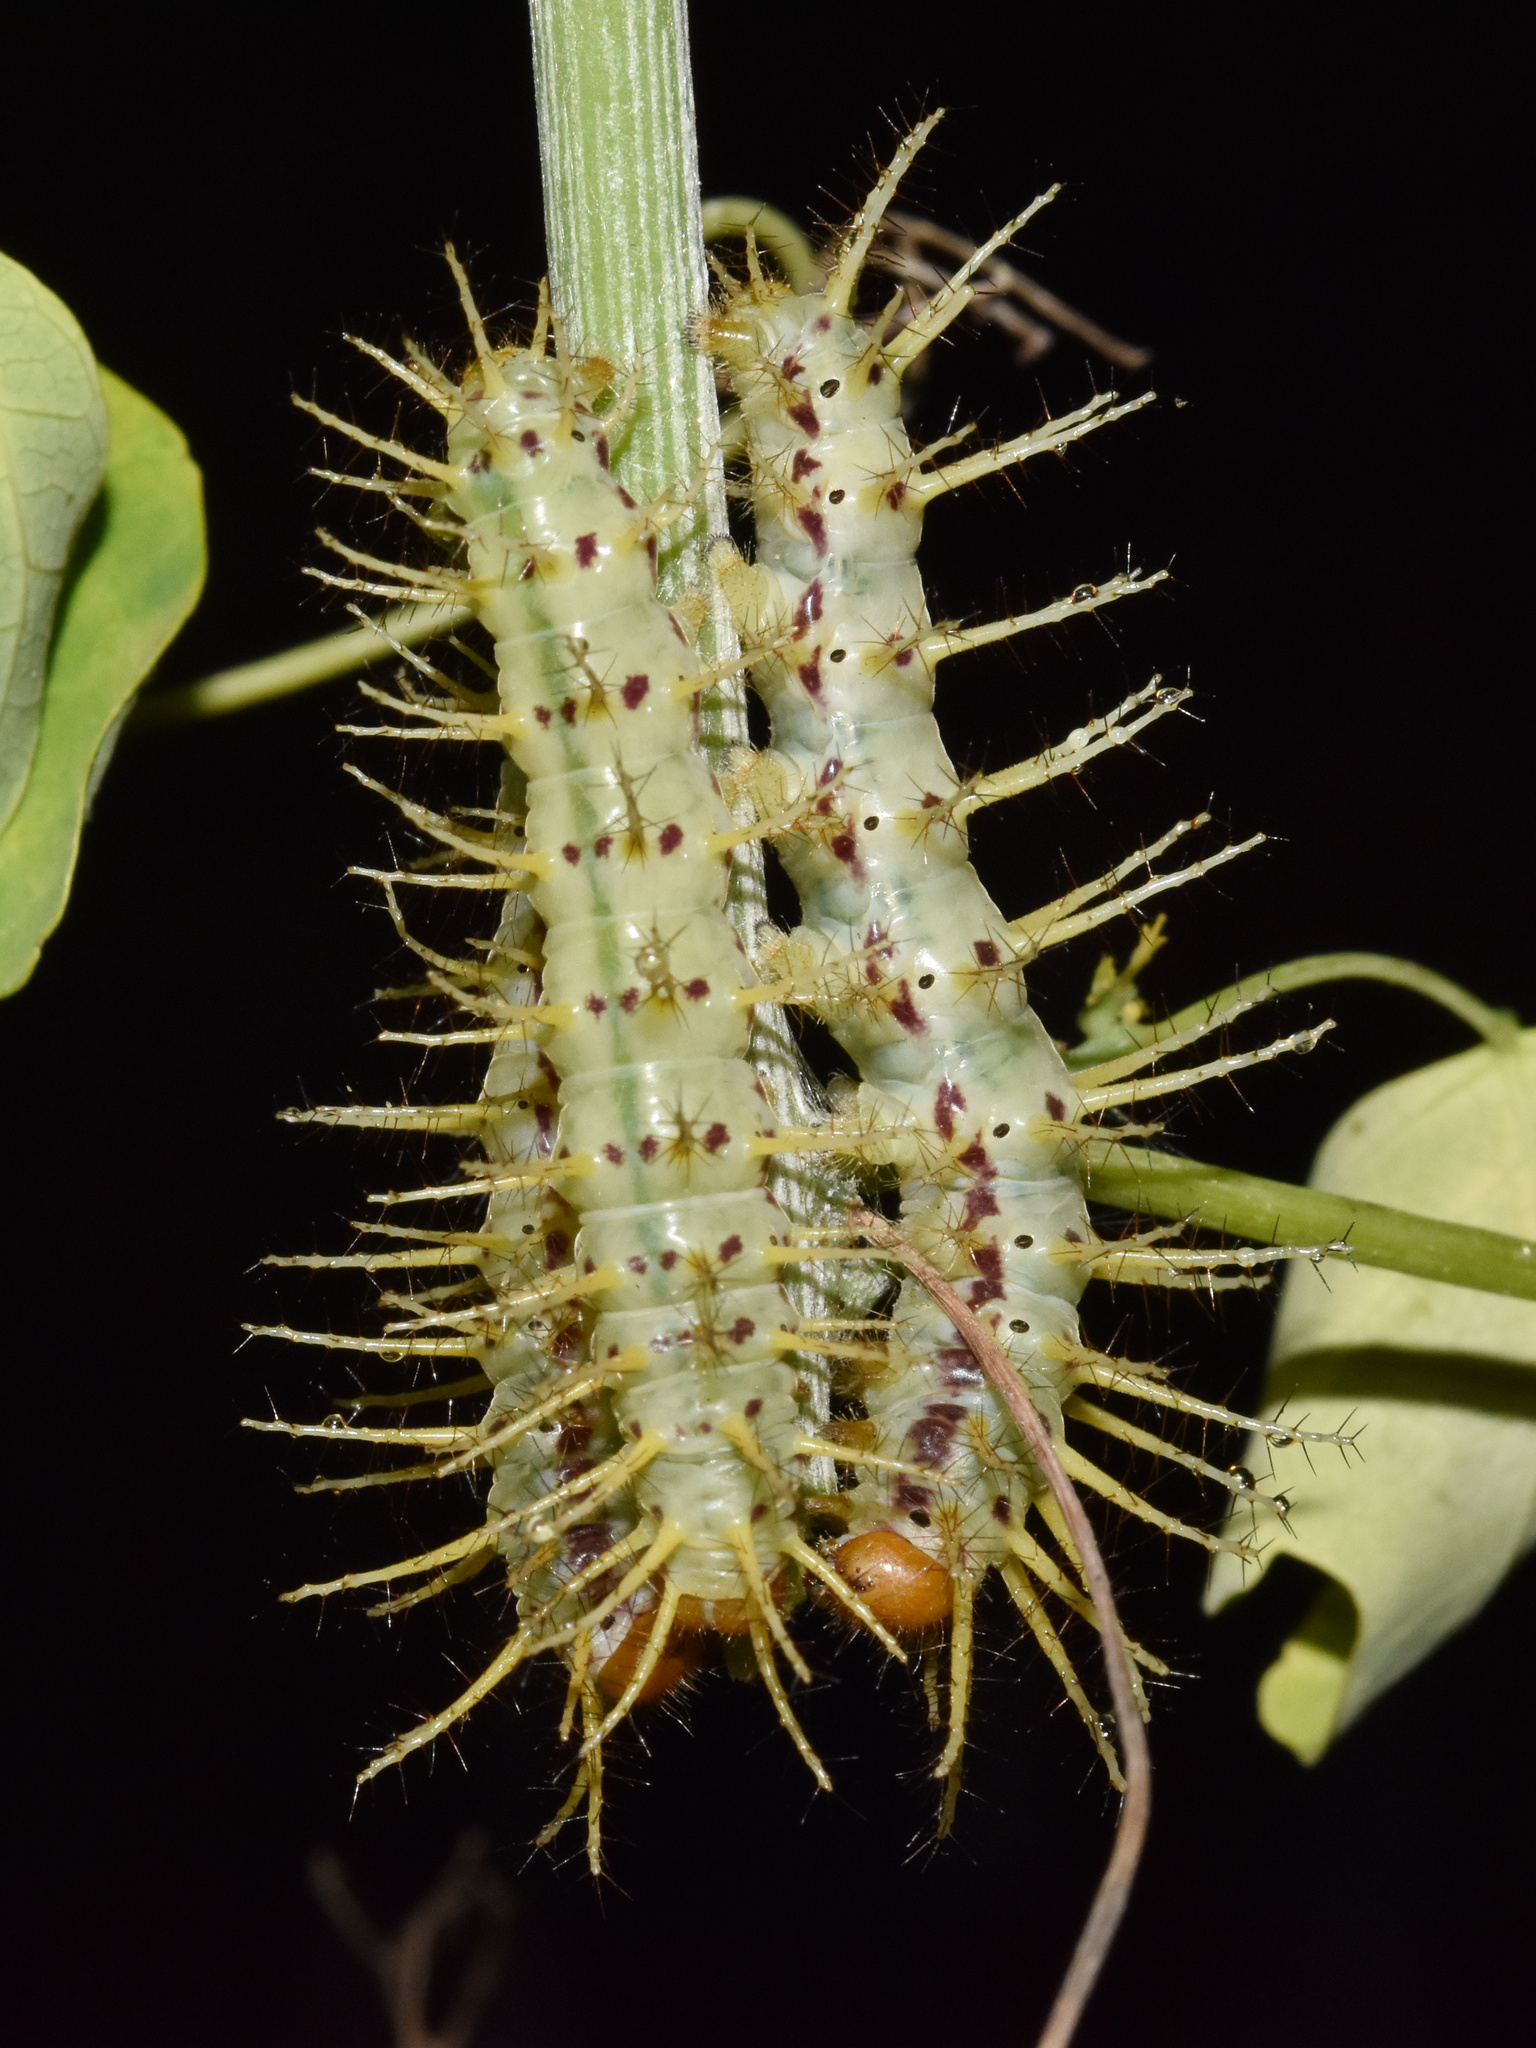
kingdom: Animalia
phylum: Arthropoda
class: Insecta
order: Lepidoptera
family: Nymphalidae
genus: Acraea
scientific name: Acraea Bematistes aganice
